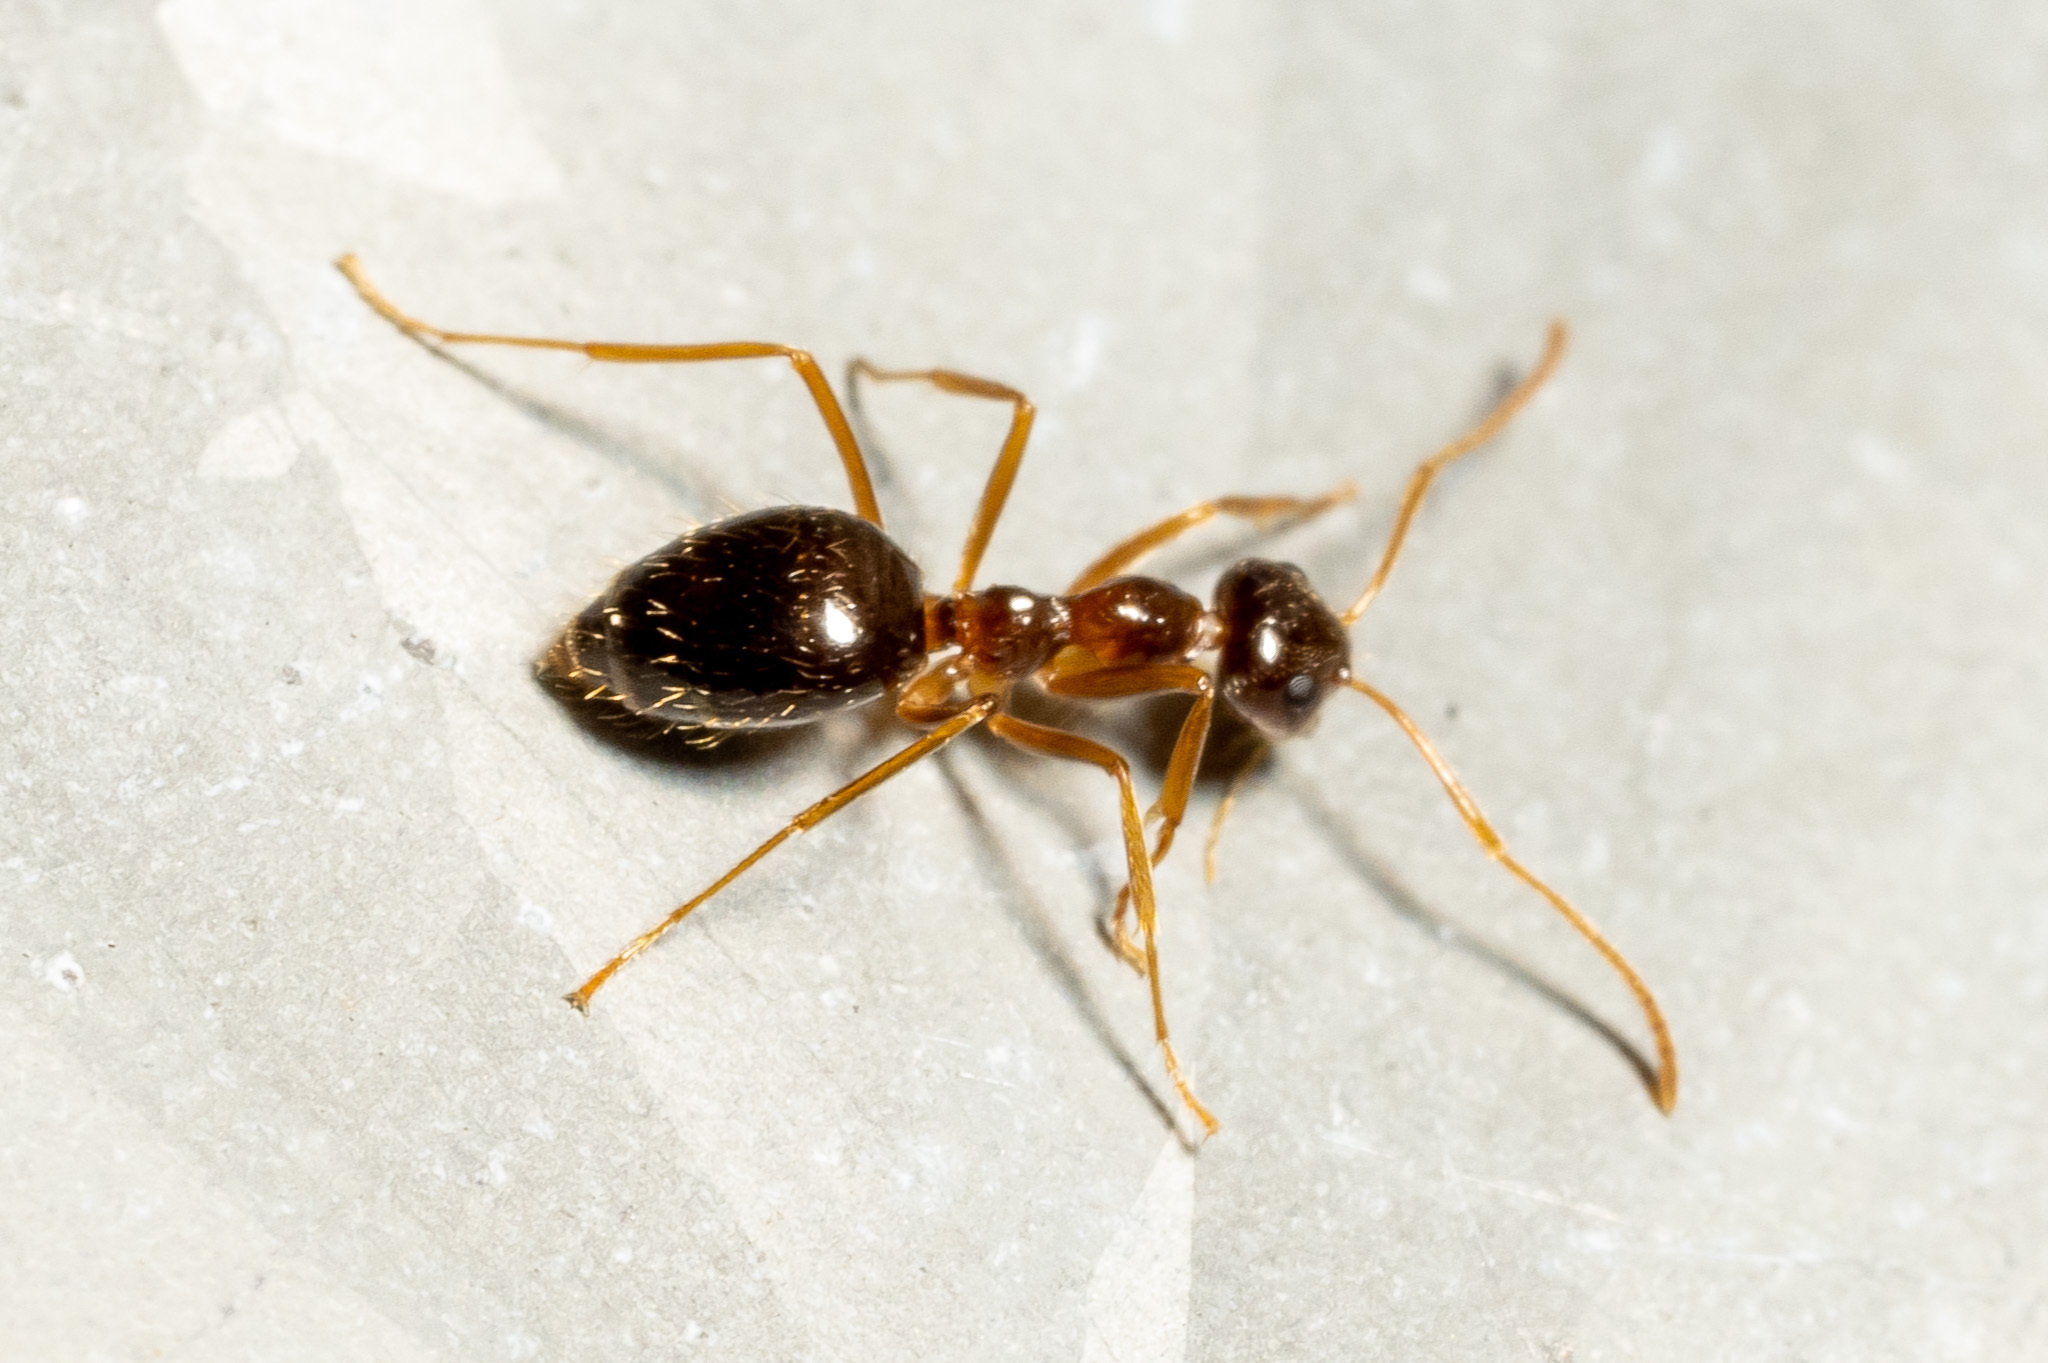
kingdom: Animalia
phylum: Arthropoda
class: Insecta
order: Hymenoptera
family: Formicidae
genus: Prenolepis
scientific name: Prenolepis imparis
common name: Small honey ant
